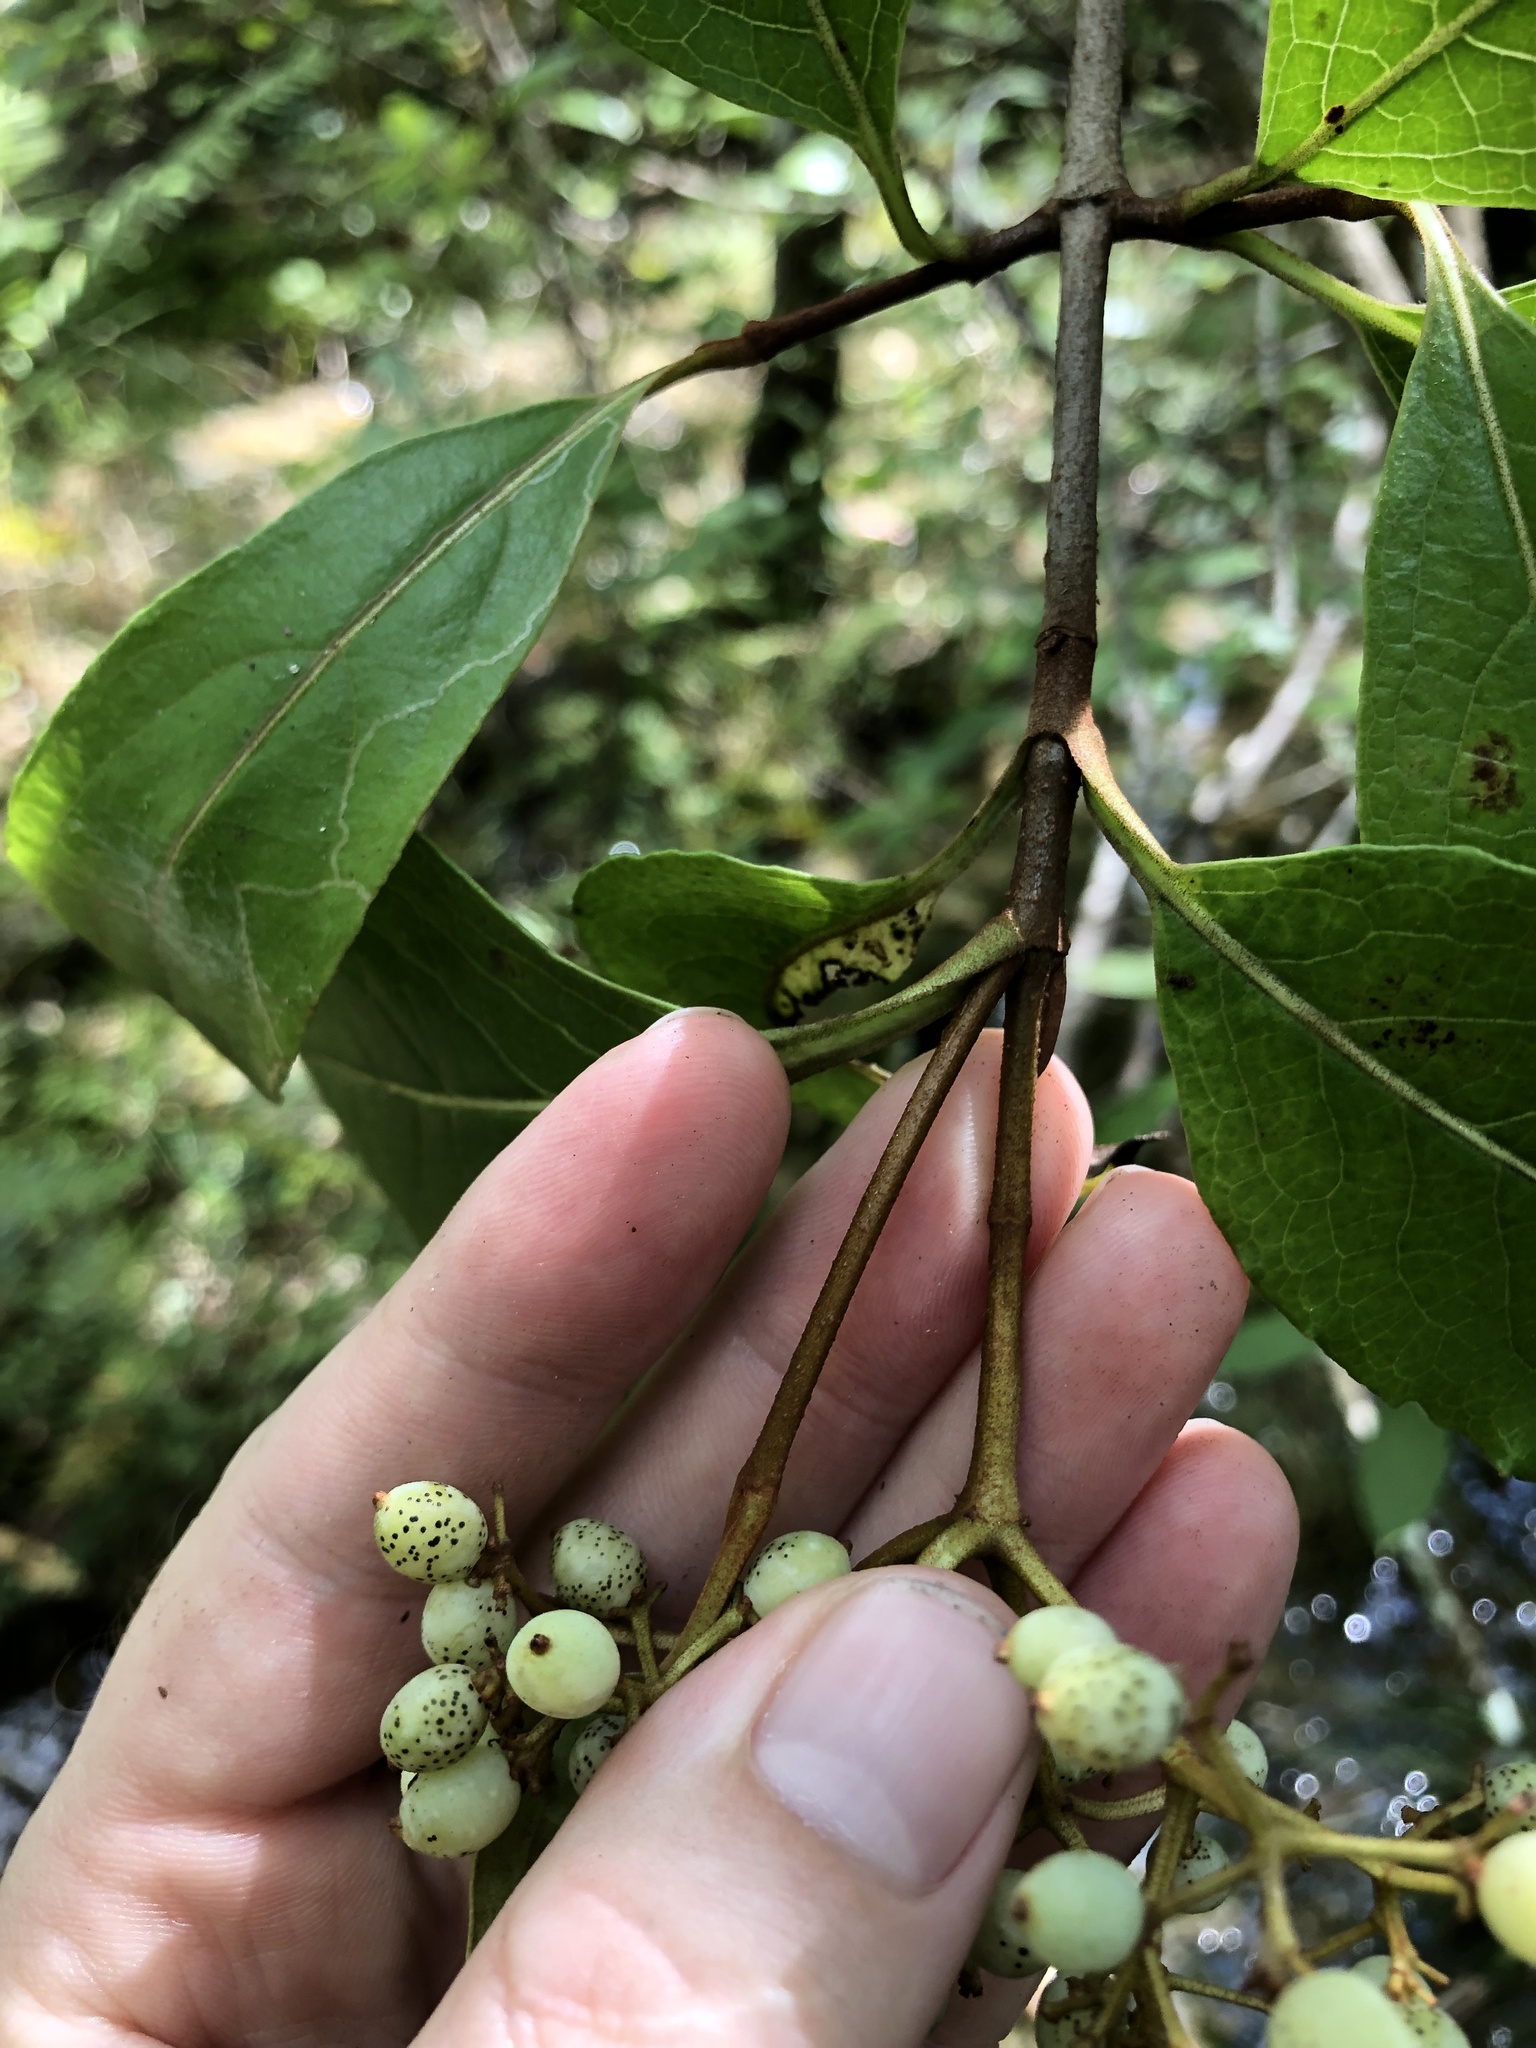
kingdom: Plantae
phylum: Tracheophyta
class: Magnoliopsida
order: Dipsacales
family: Viburnaceae
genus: Viburnum
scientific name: Viburnum nudum
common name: Possum haw
